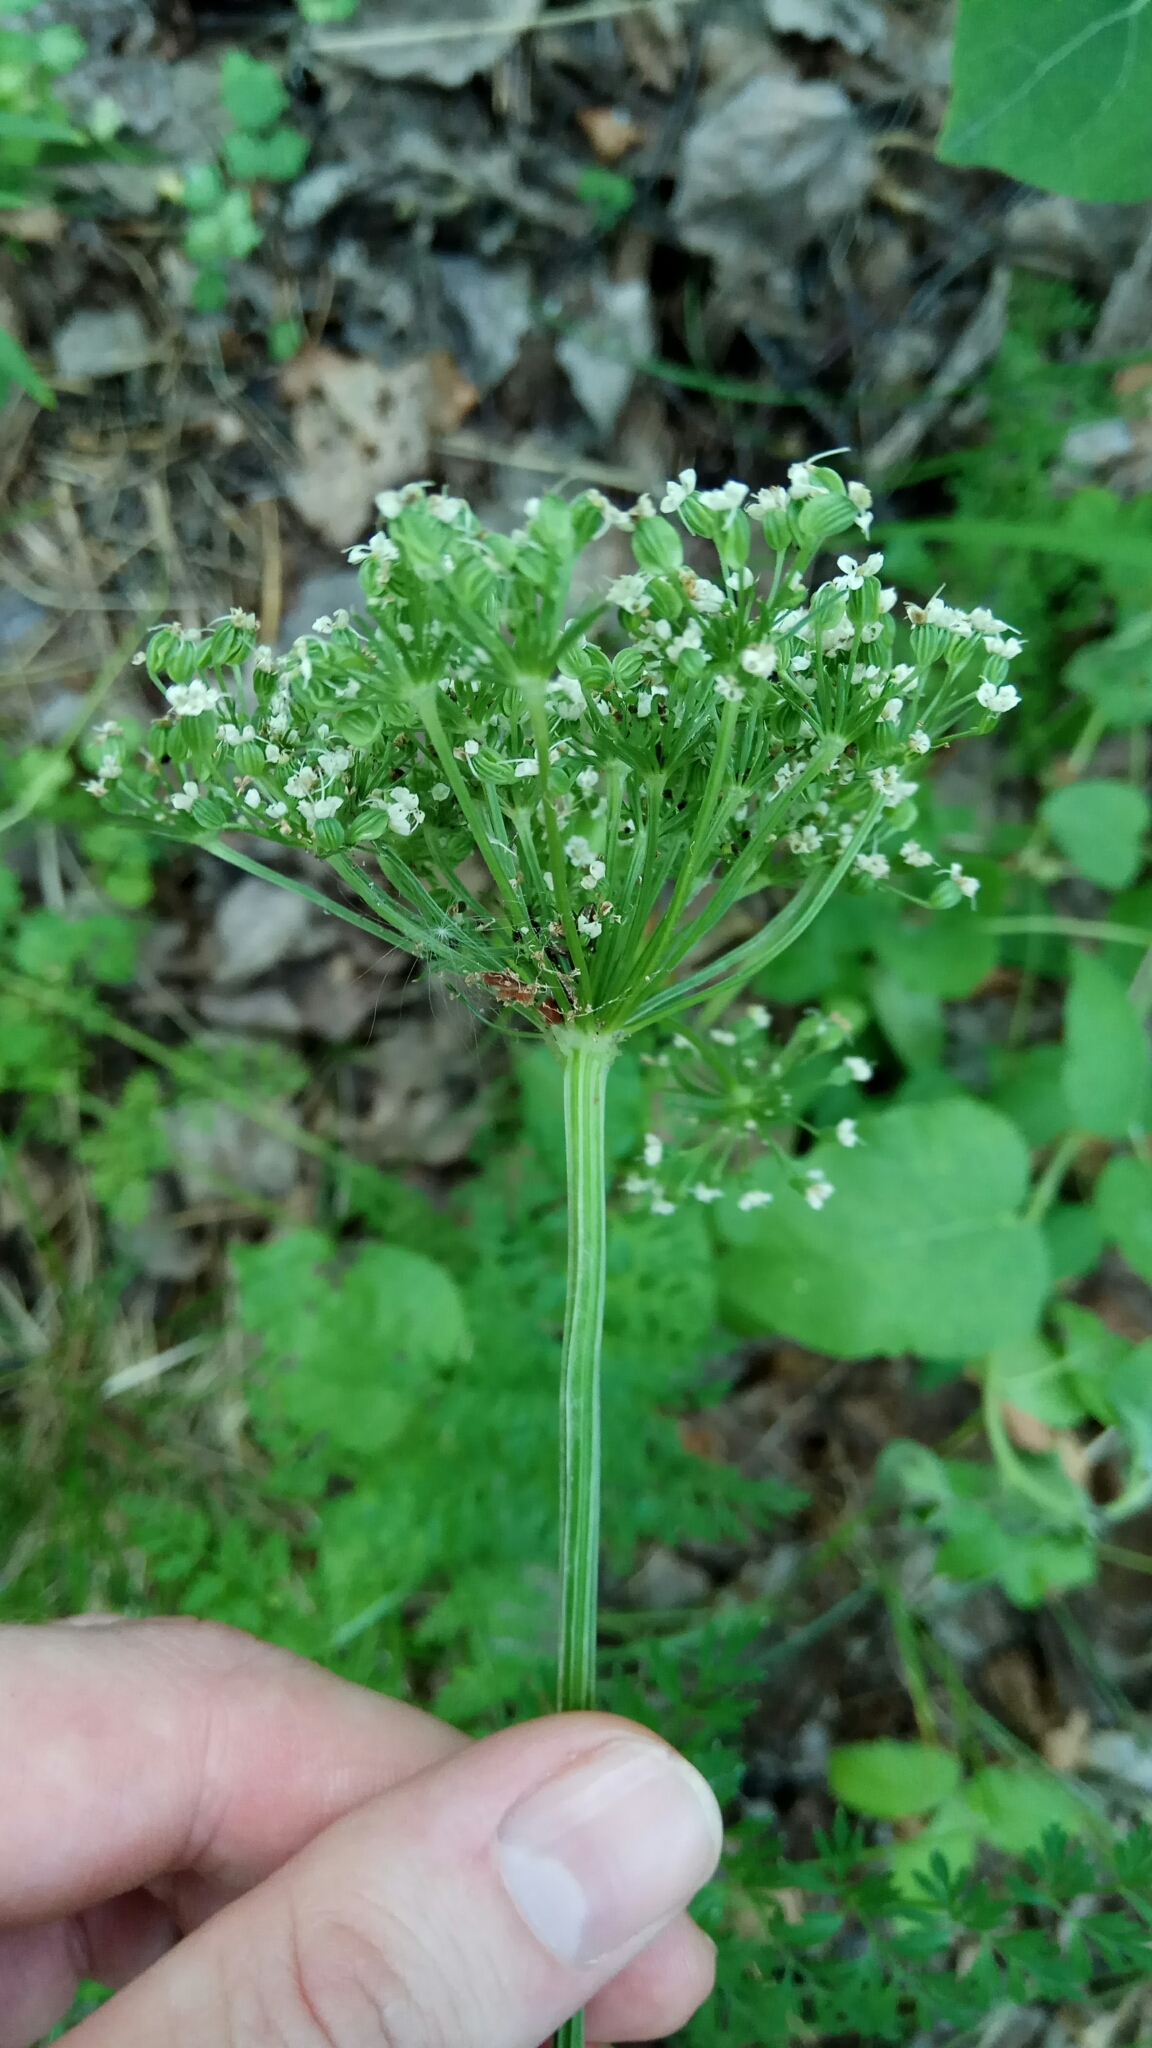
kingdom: Plantae
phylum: Tracheophyta
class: Magnoliopsida
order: Apiales
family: Apiaceae
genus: Selinum
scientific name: Selinum carvifolia
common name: Cambridge milk-parsley
